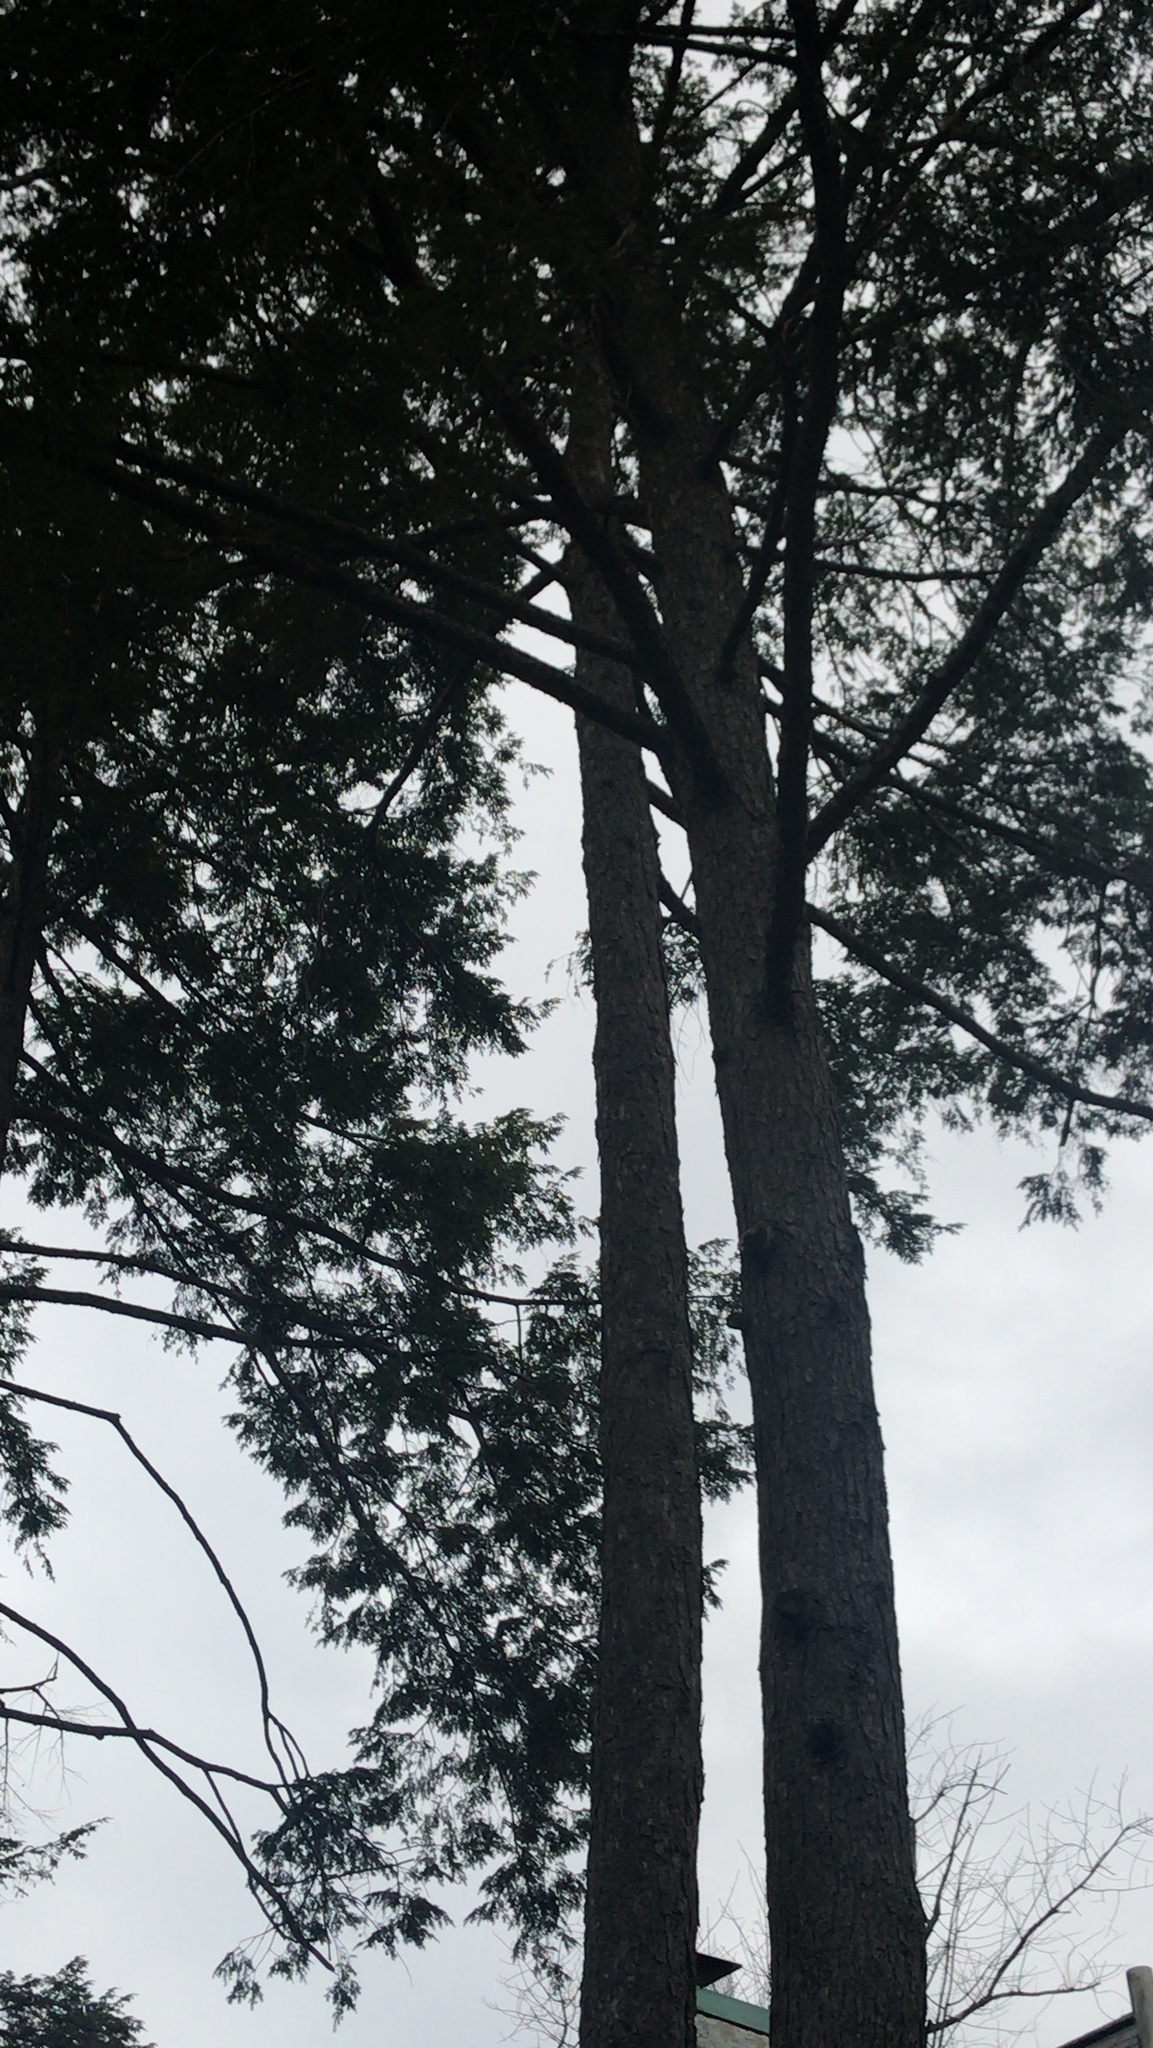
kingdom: Plantae
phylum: Tracheophyta
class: Pinopsida
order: Pinales
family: Pinaceae
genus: Tsuga
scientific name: Tsuga canadensis
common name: Eastern hemlock
